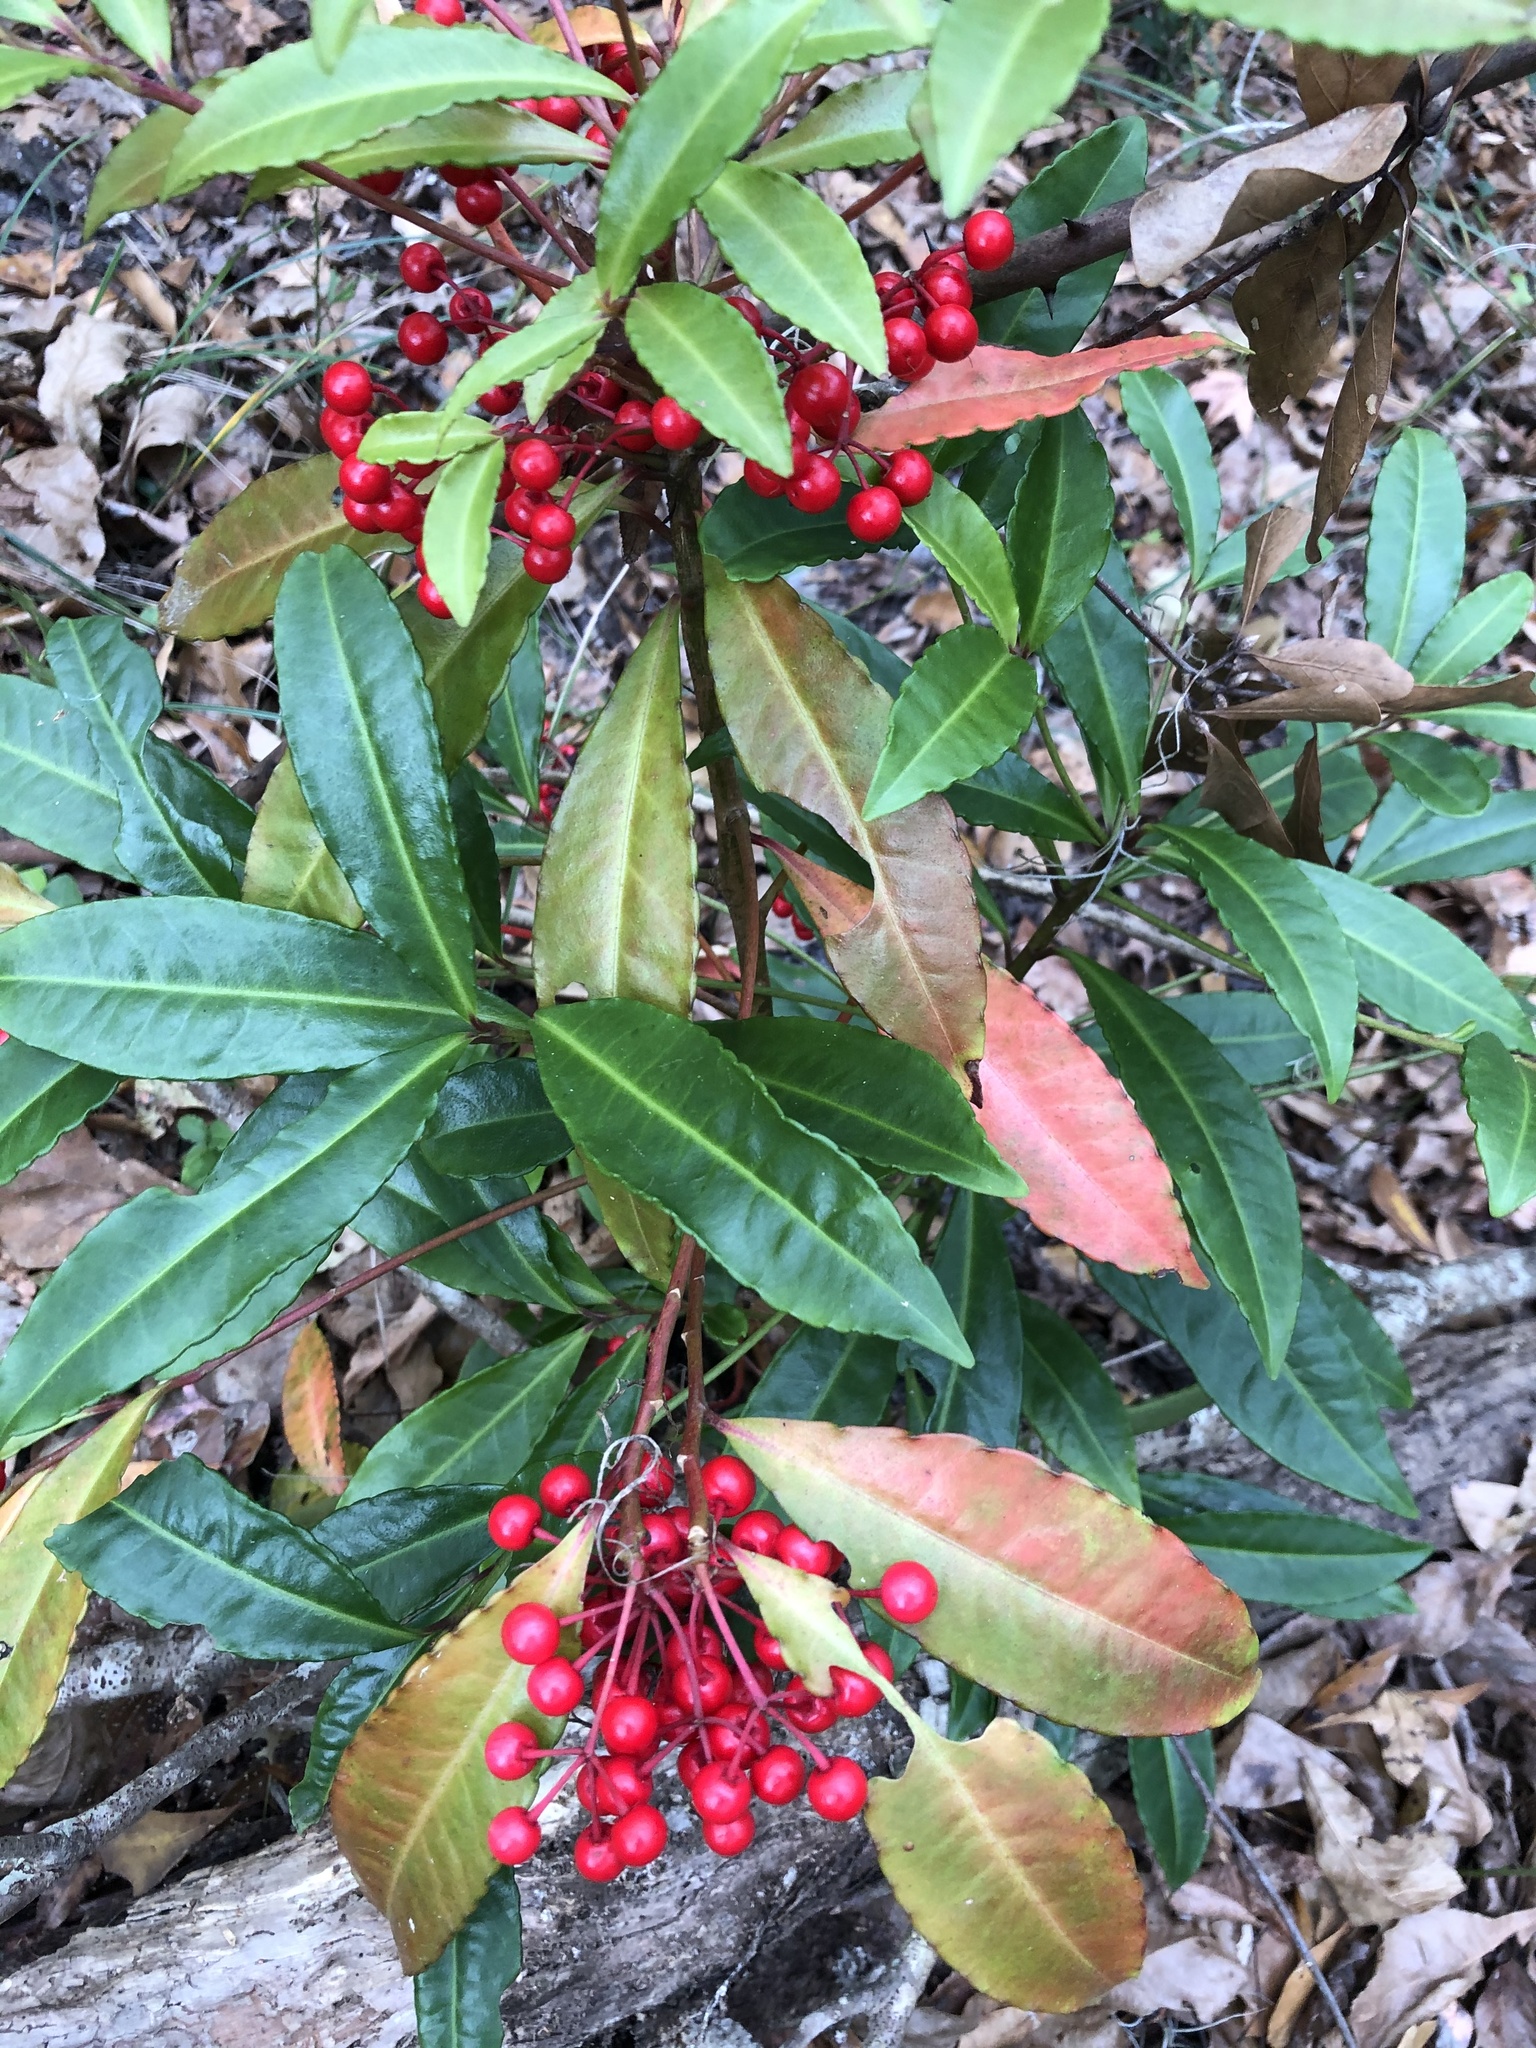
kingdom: Plantae
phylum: Tracheophyta
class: Magnoliopsida
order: Ericales
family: Primulaceae
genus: Ardisia
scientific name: Ardisia crenata
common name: Hen's eyes
